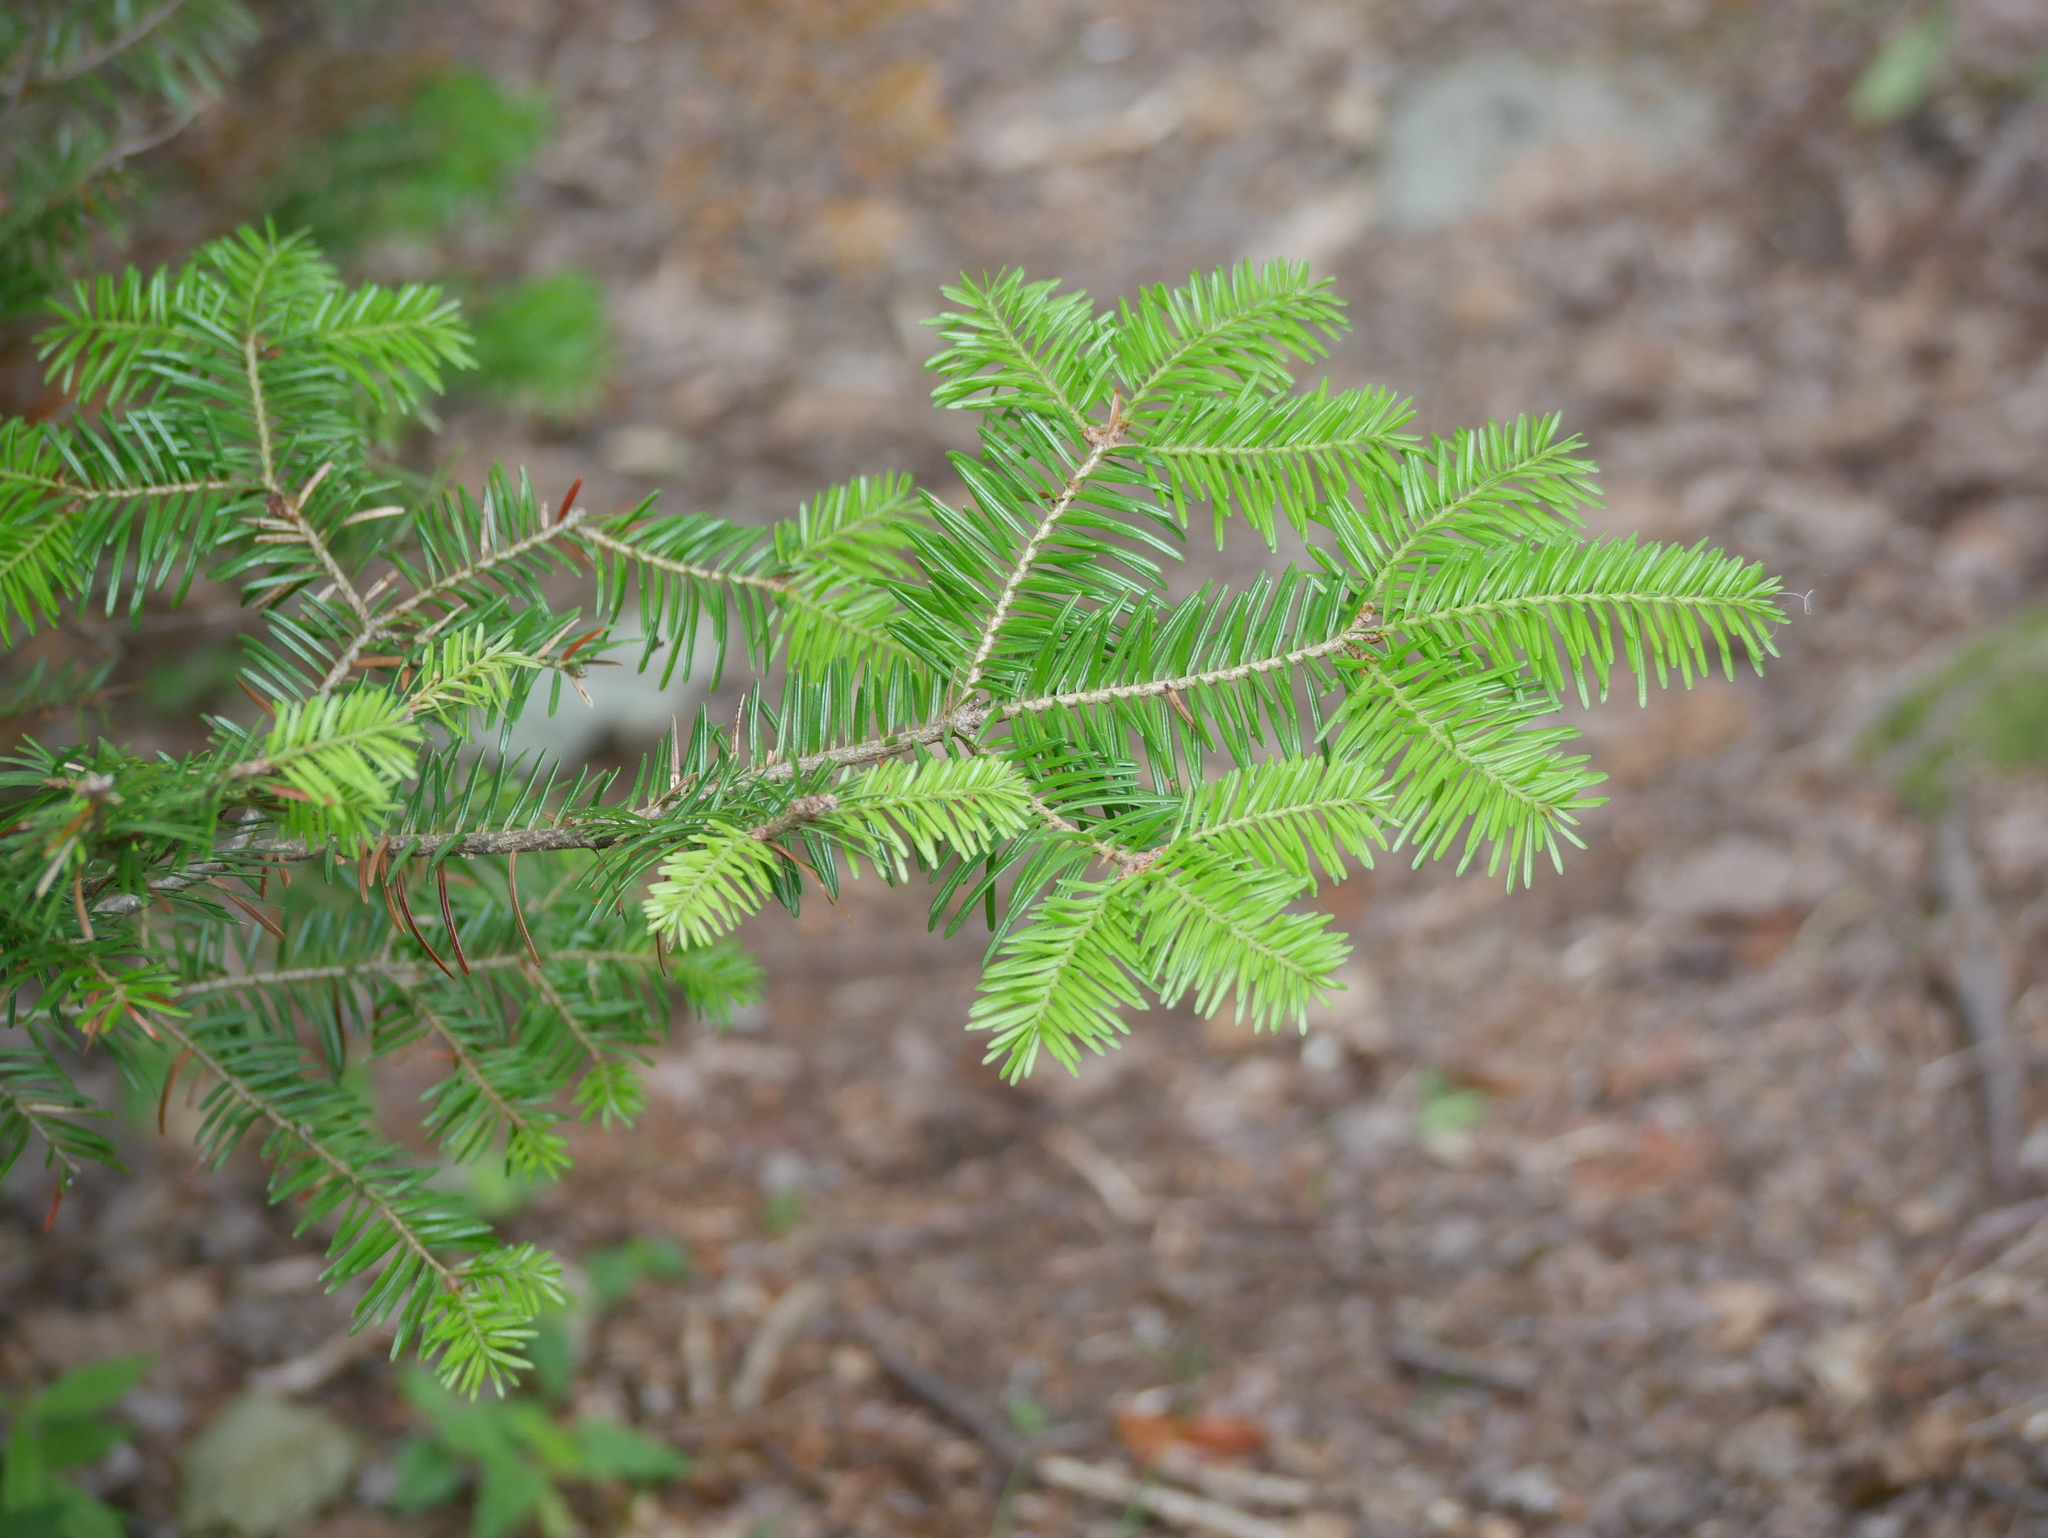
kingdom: Plantae
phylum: Tracheophyta
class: Pinopsida
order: Pinales
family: Pinaceae
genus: Abies
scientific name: Abies balsamea
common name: Balsam fir
